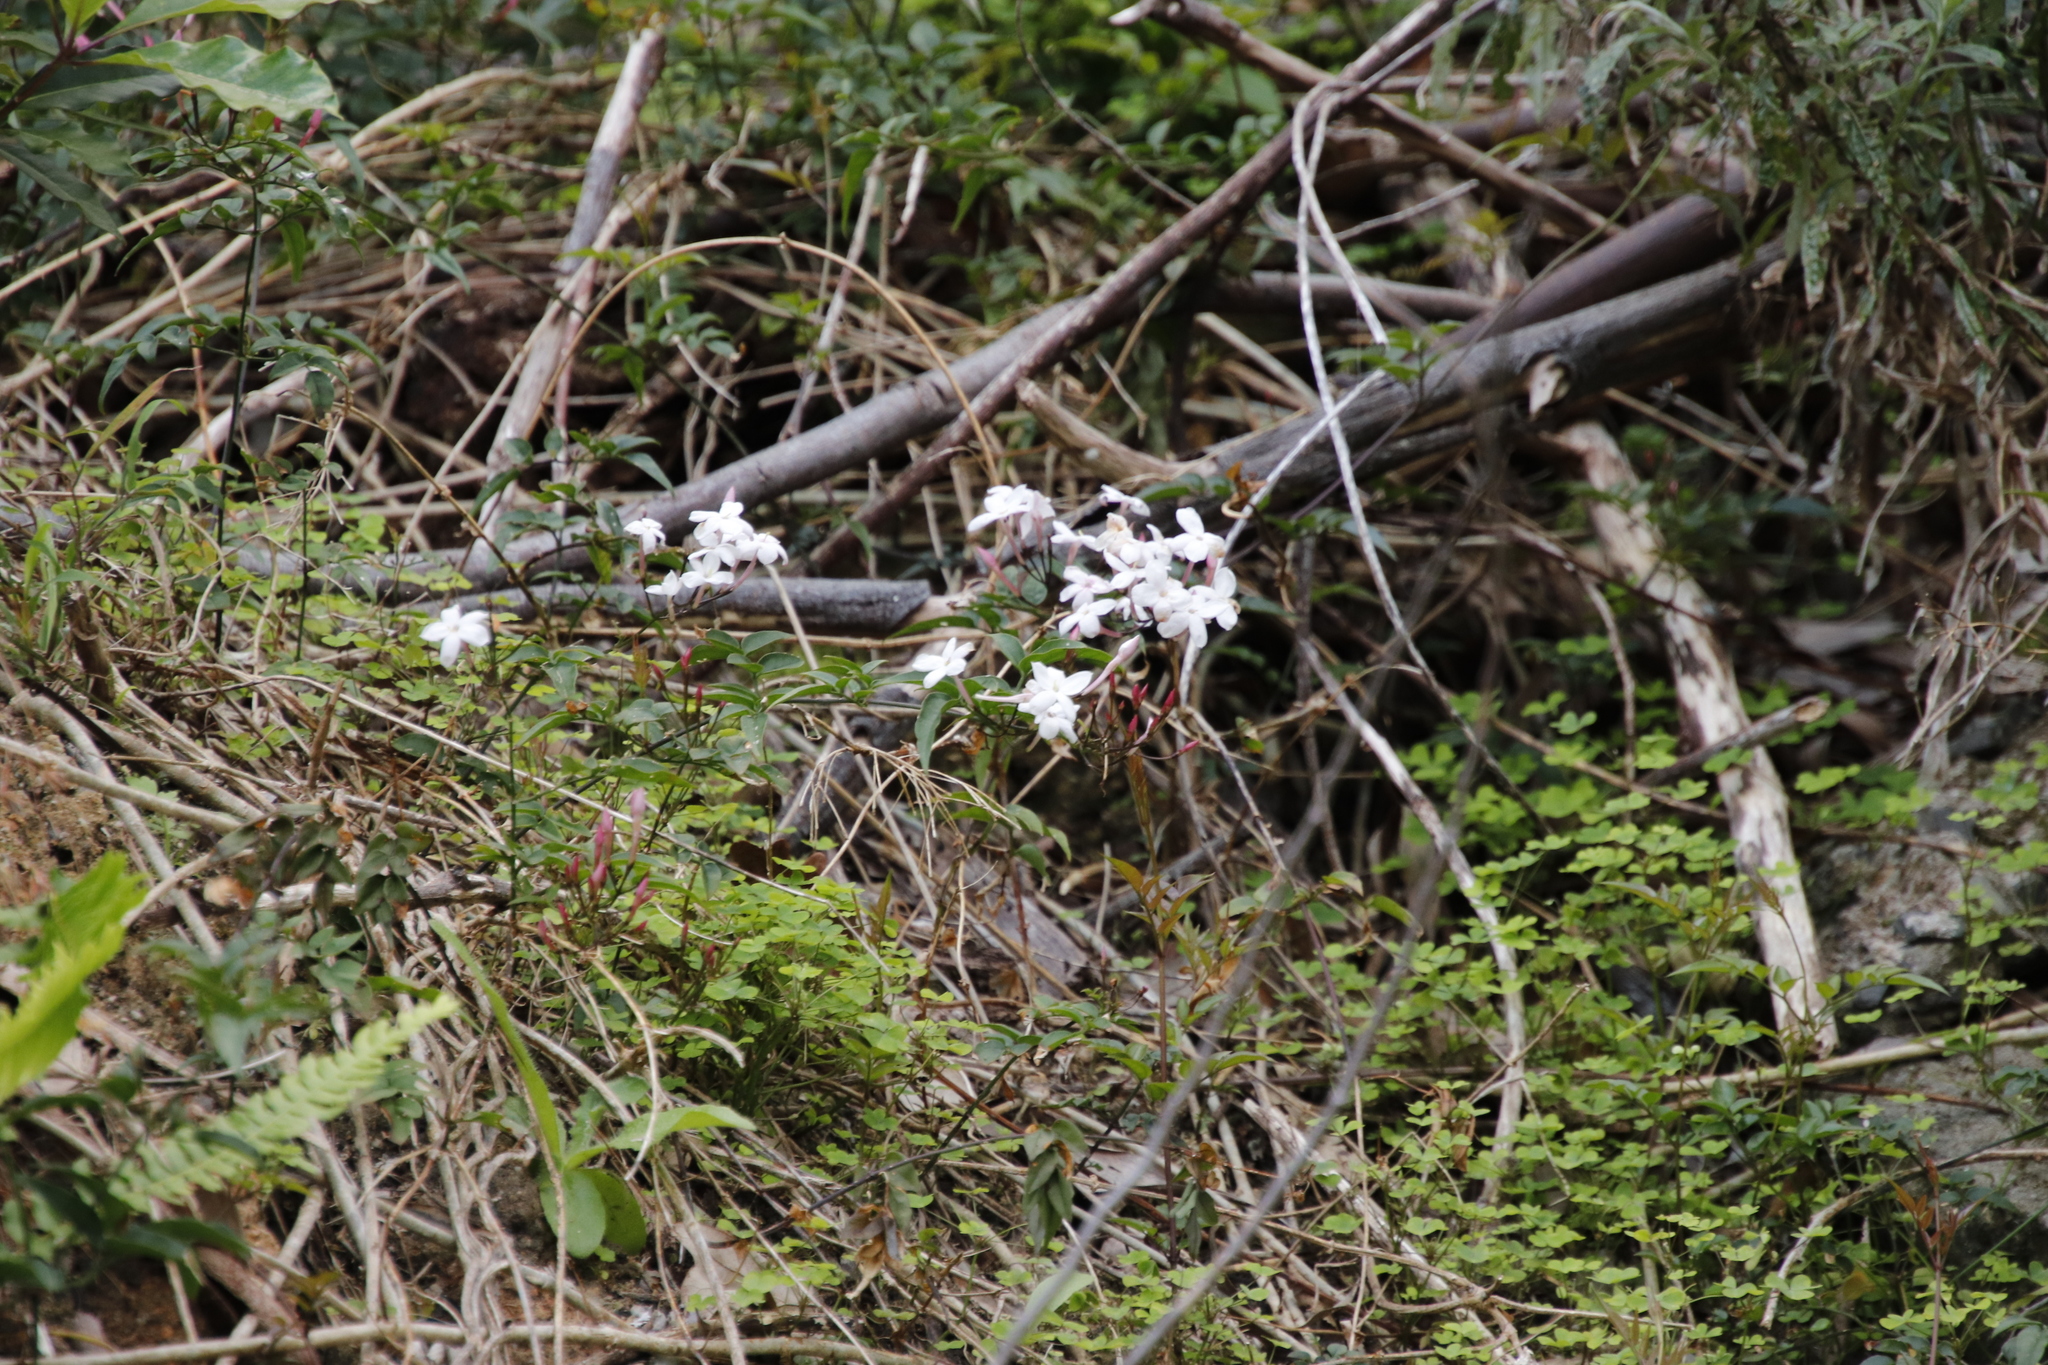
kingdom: Plantae
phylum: Tracheophyta
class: Magnoliopsida
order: Lamiales
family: Oleaceae
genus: Jasminum
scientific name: Jasminum polyanthum
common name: Pink jasmine
